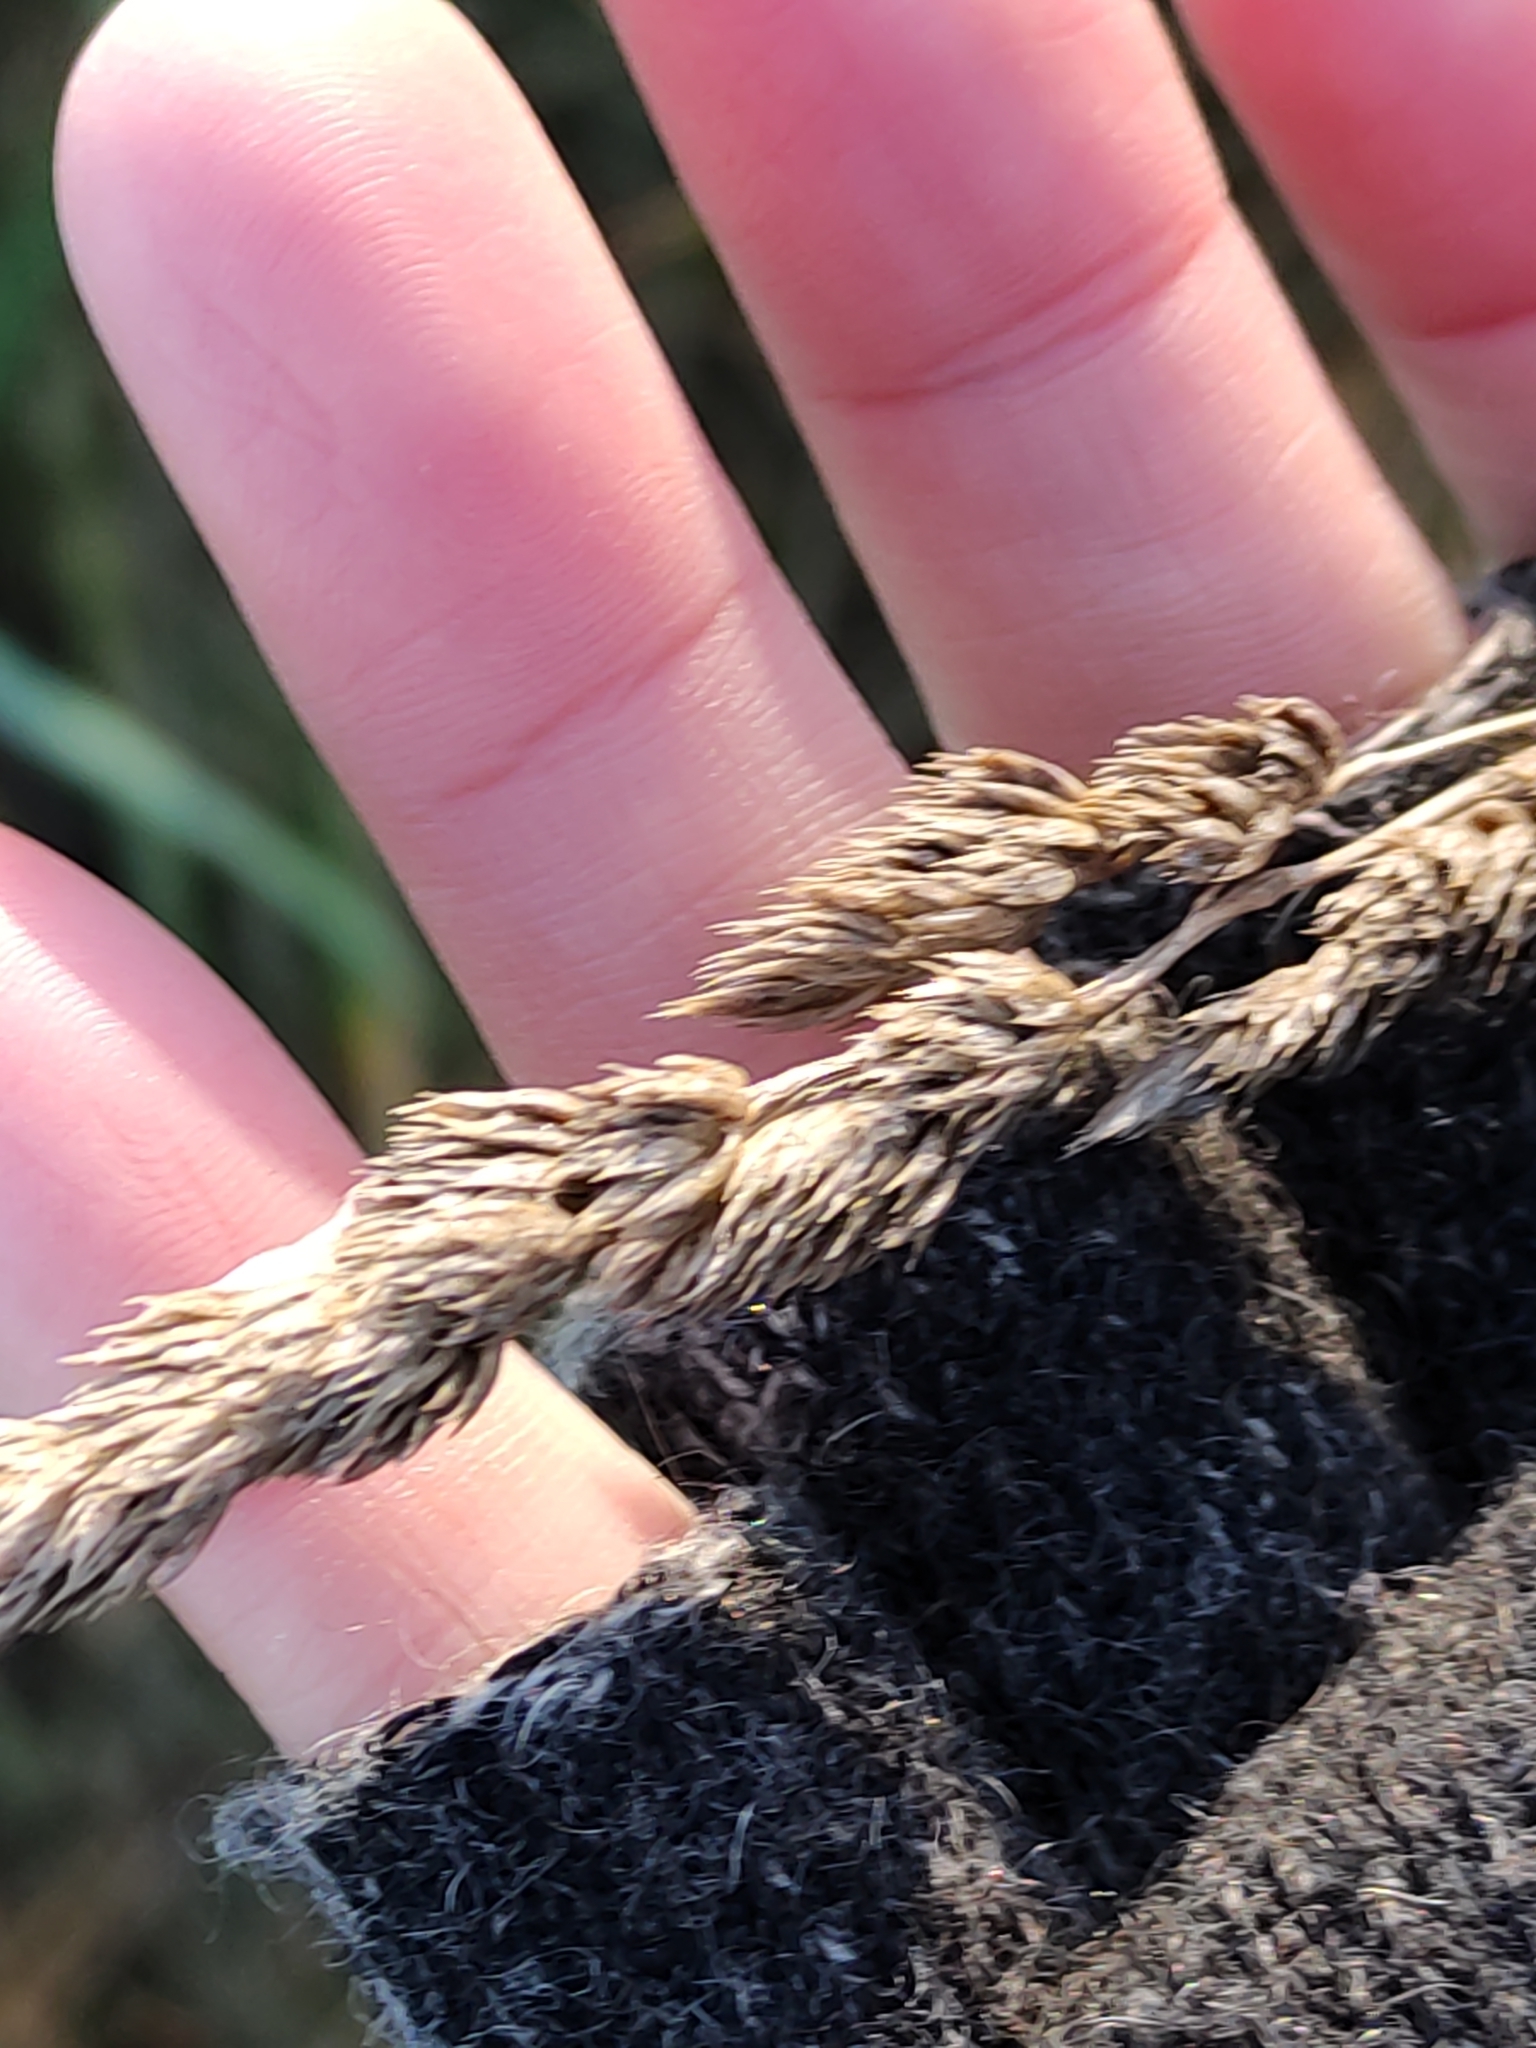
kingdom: Plantae
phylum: Tracheophyta
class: Liliopsida
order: Poales
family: Poaceae
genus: Dactylis
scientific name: Dactylis glomerata
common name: Orchardgrass
